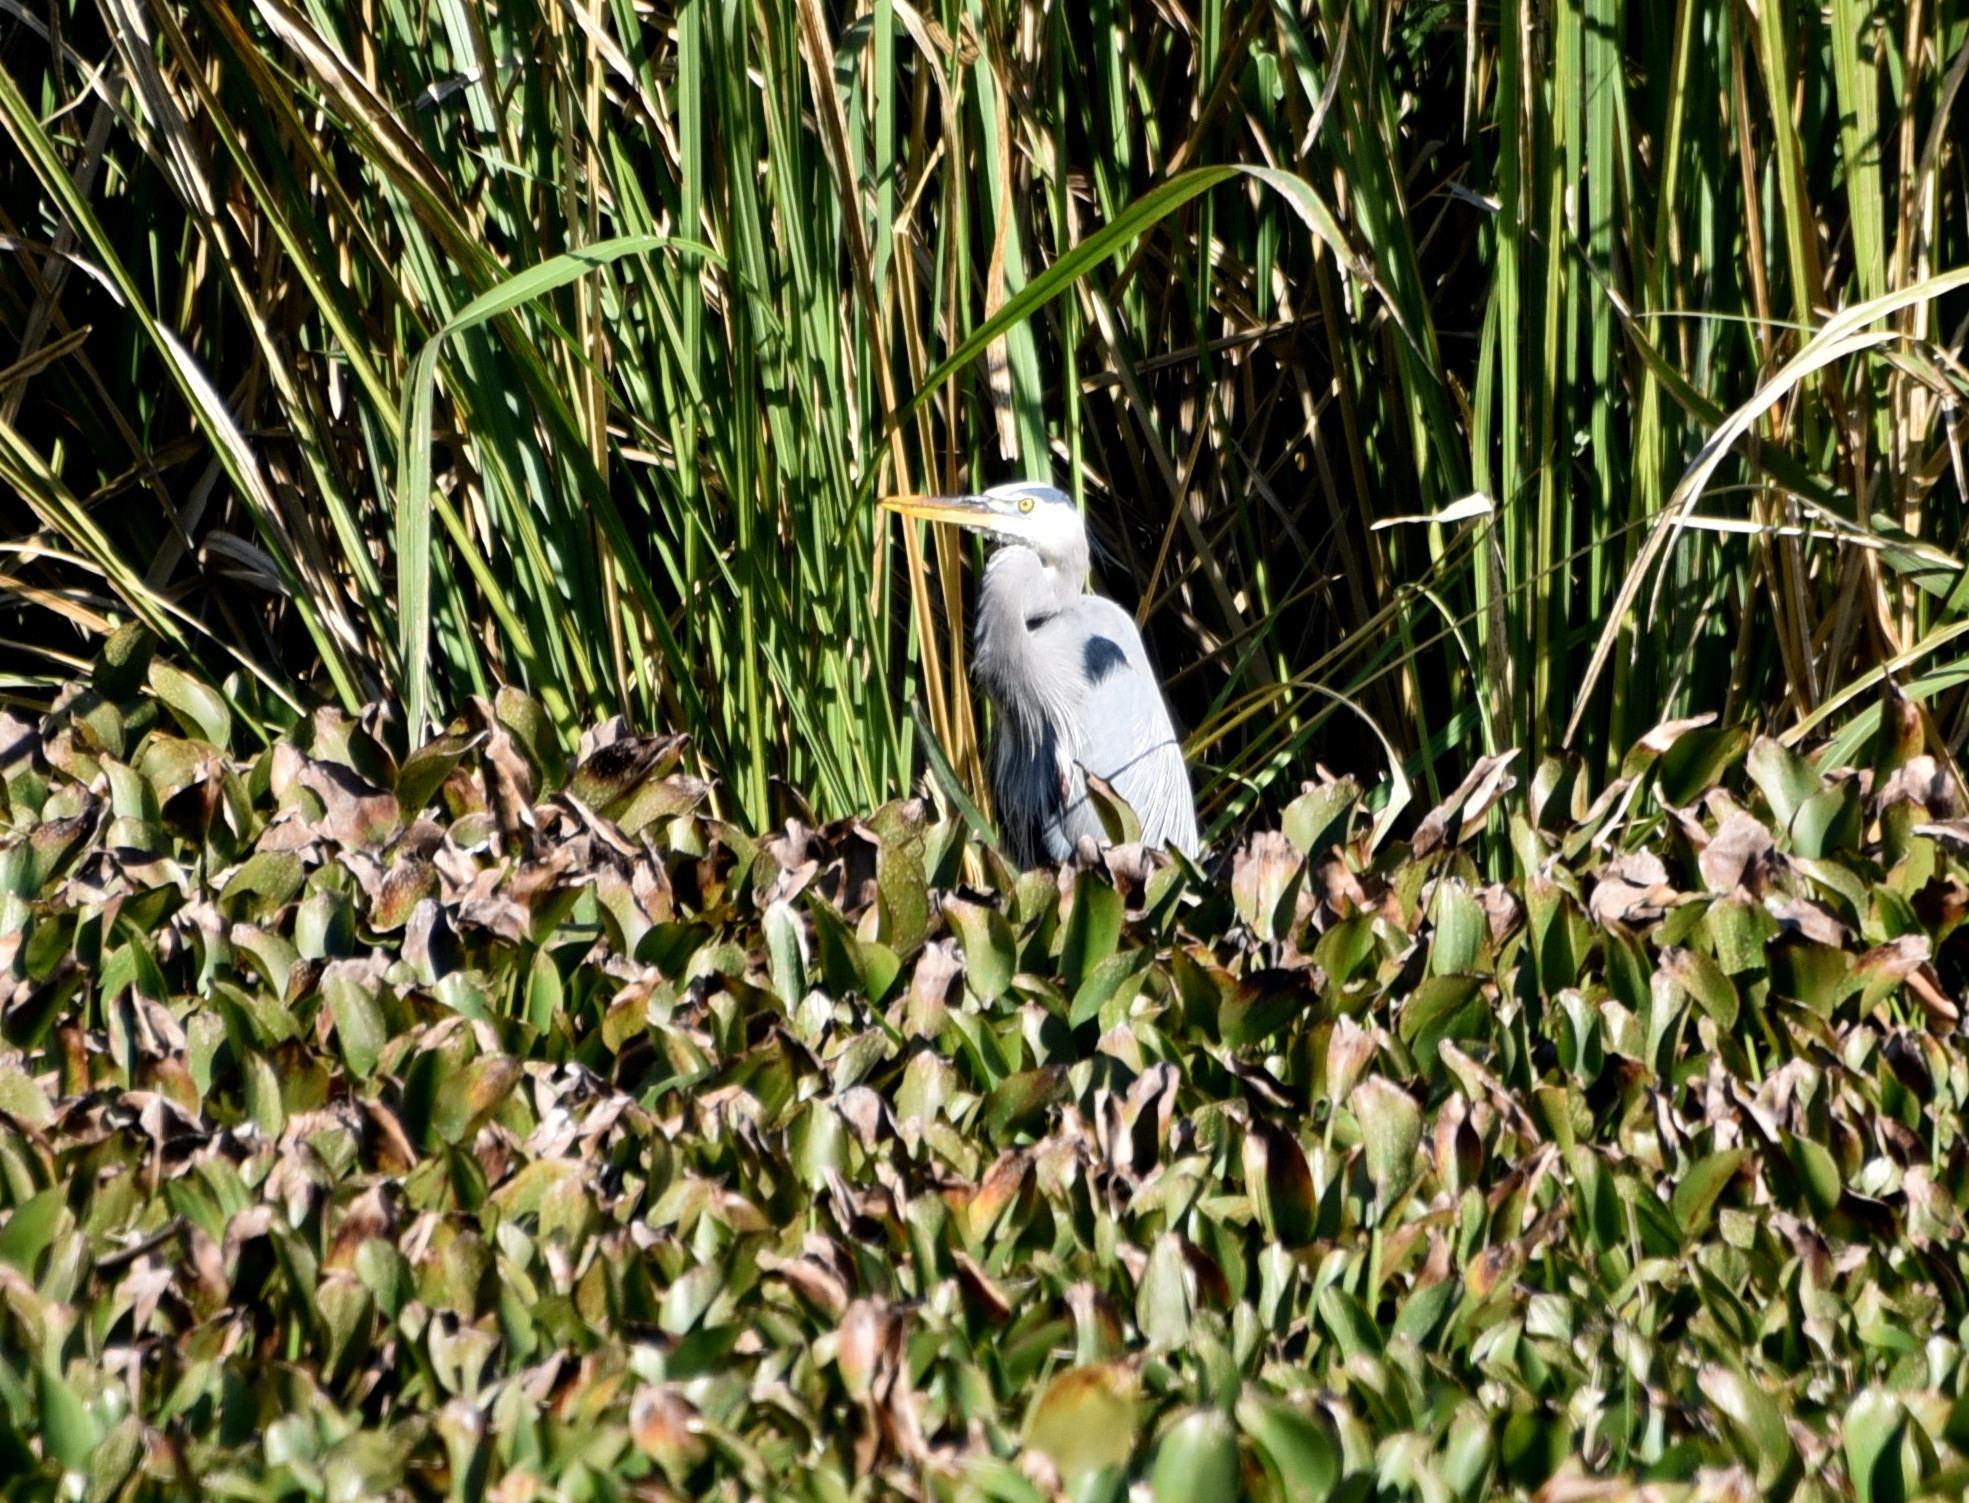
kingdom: Animalia
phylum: Chordata
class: Aves
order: Pelecaniformes
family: Ardeidae
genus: Ardea
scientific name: Ardea herodias
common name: Great blue heron
